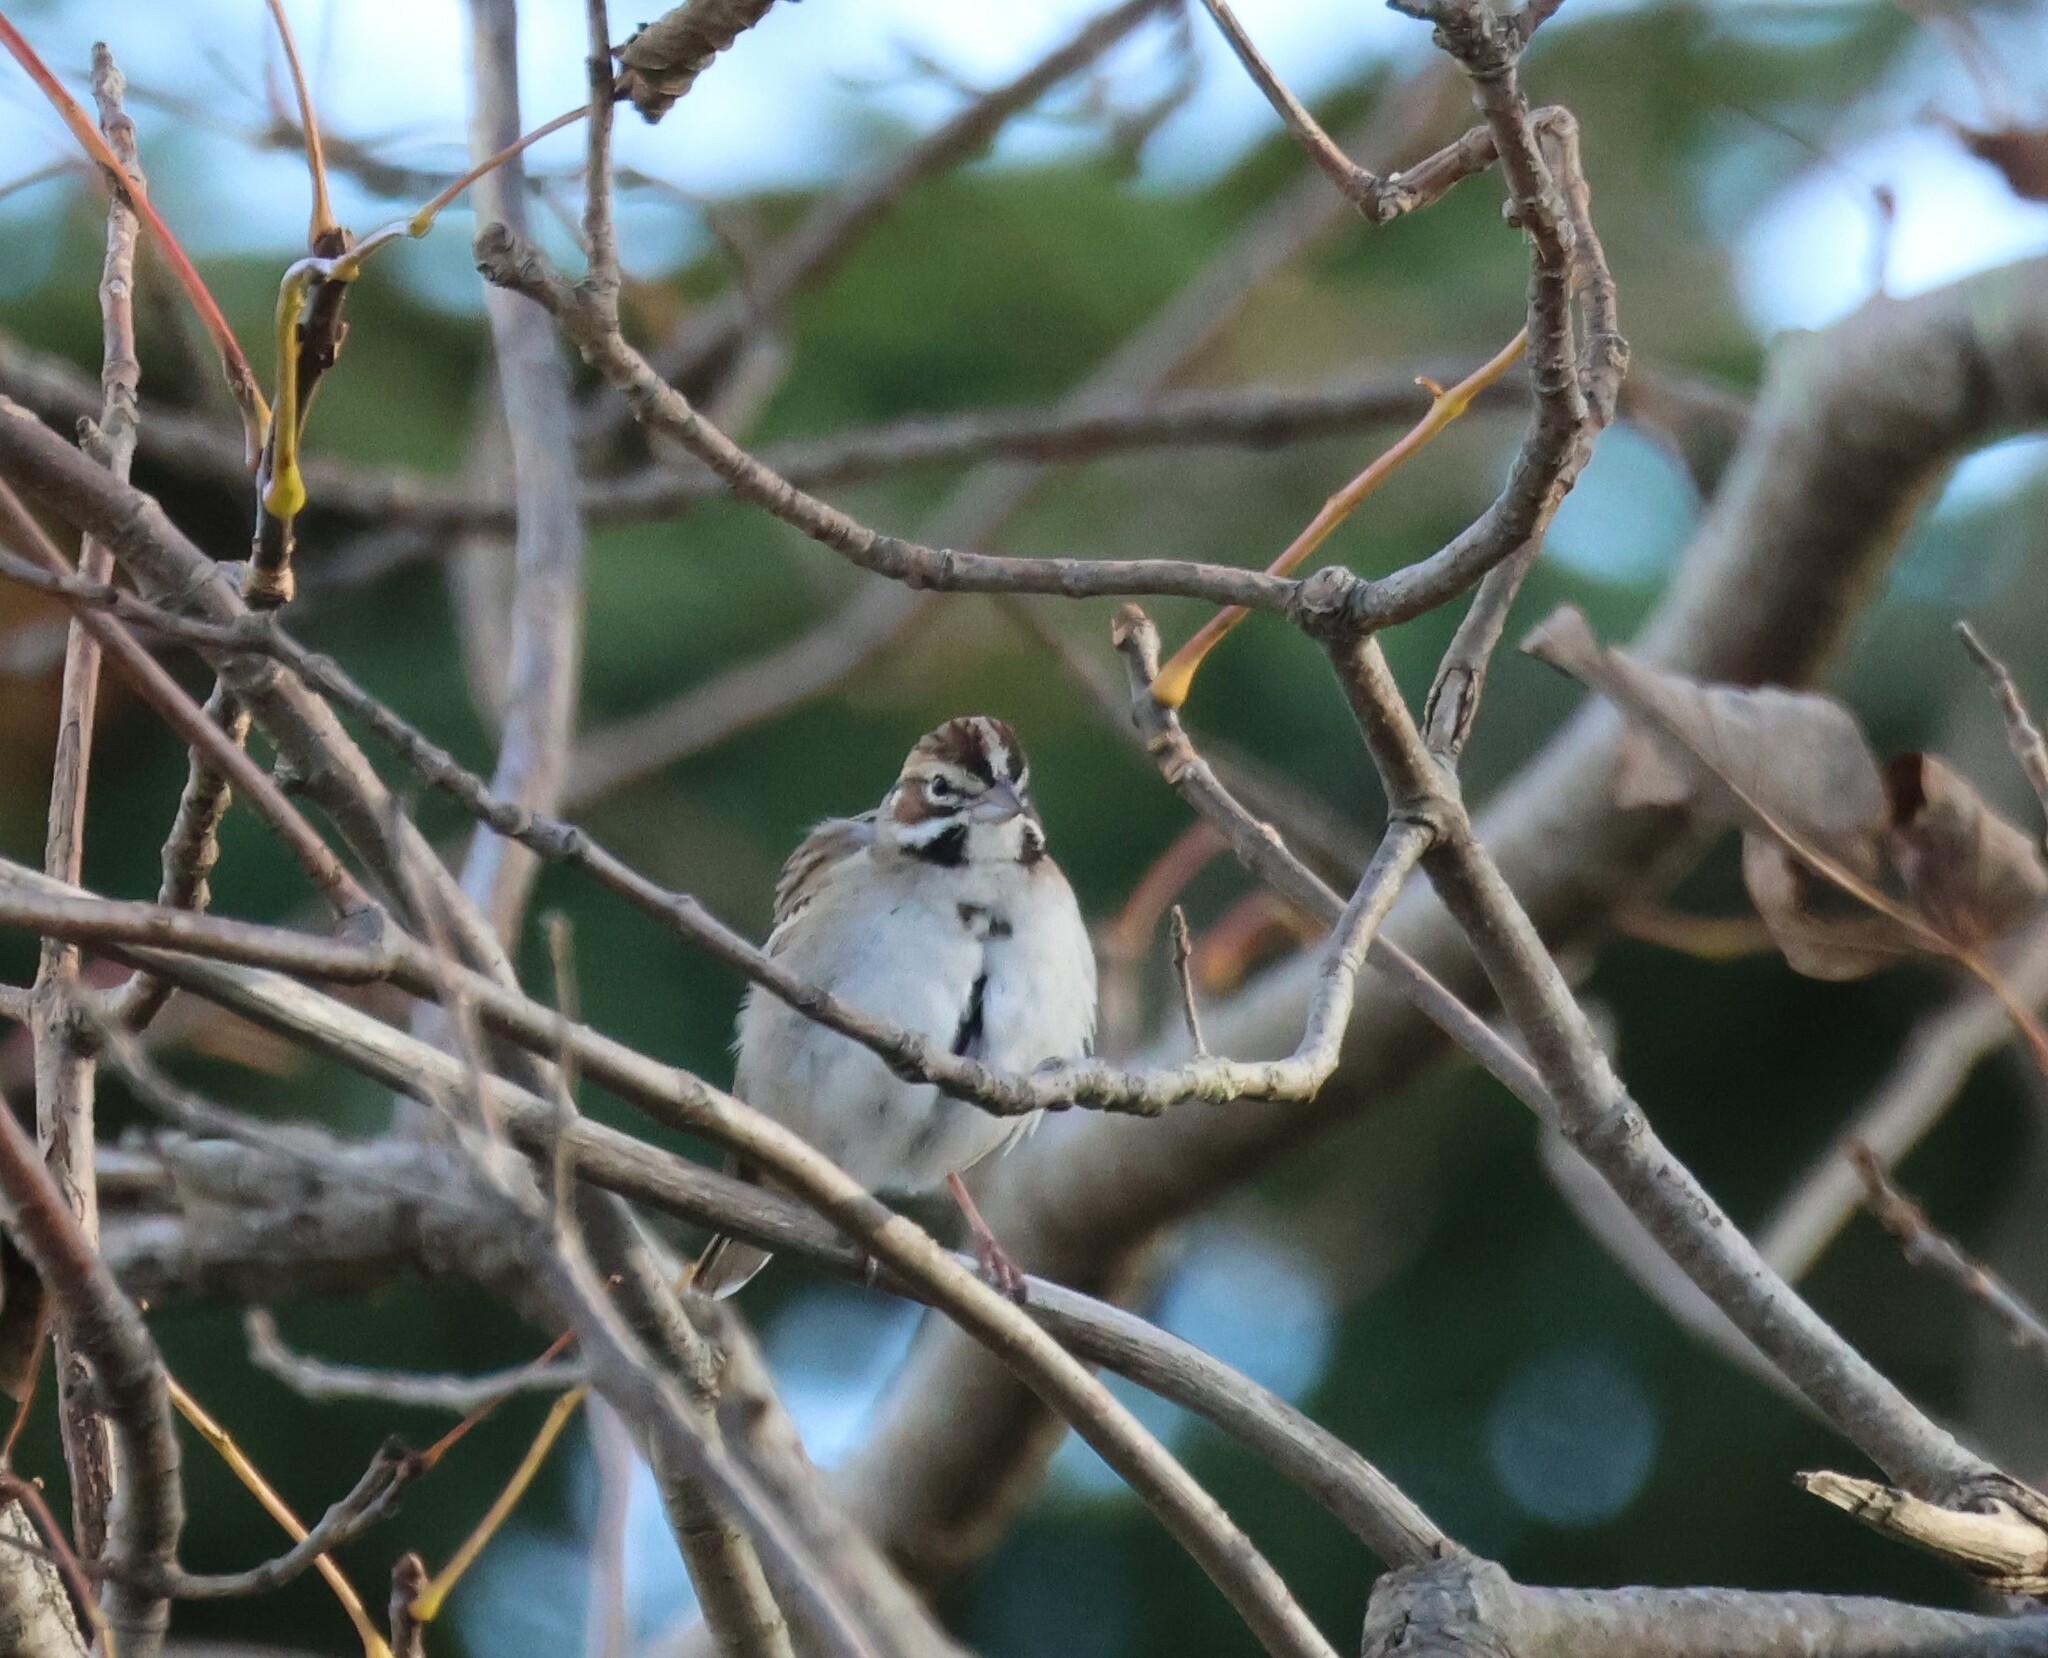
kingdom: Animalia
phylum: Chordata
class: Aves
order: Passeriformes
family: Passerellidae
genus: Chondestes
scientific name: Chondestes grammacus
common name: Lark sparrow
